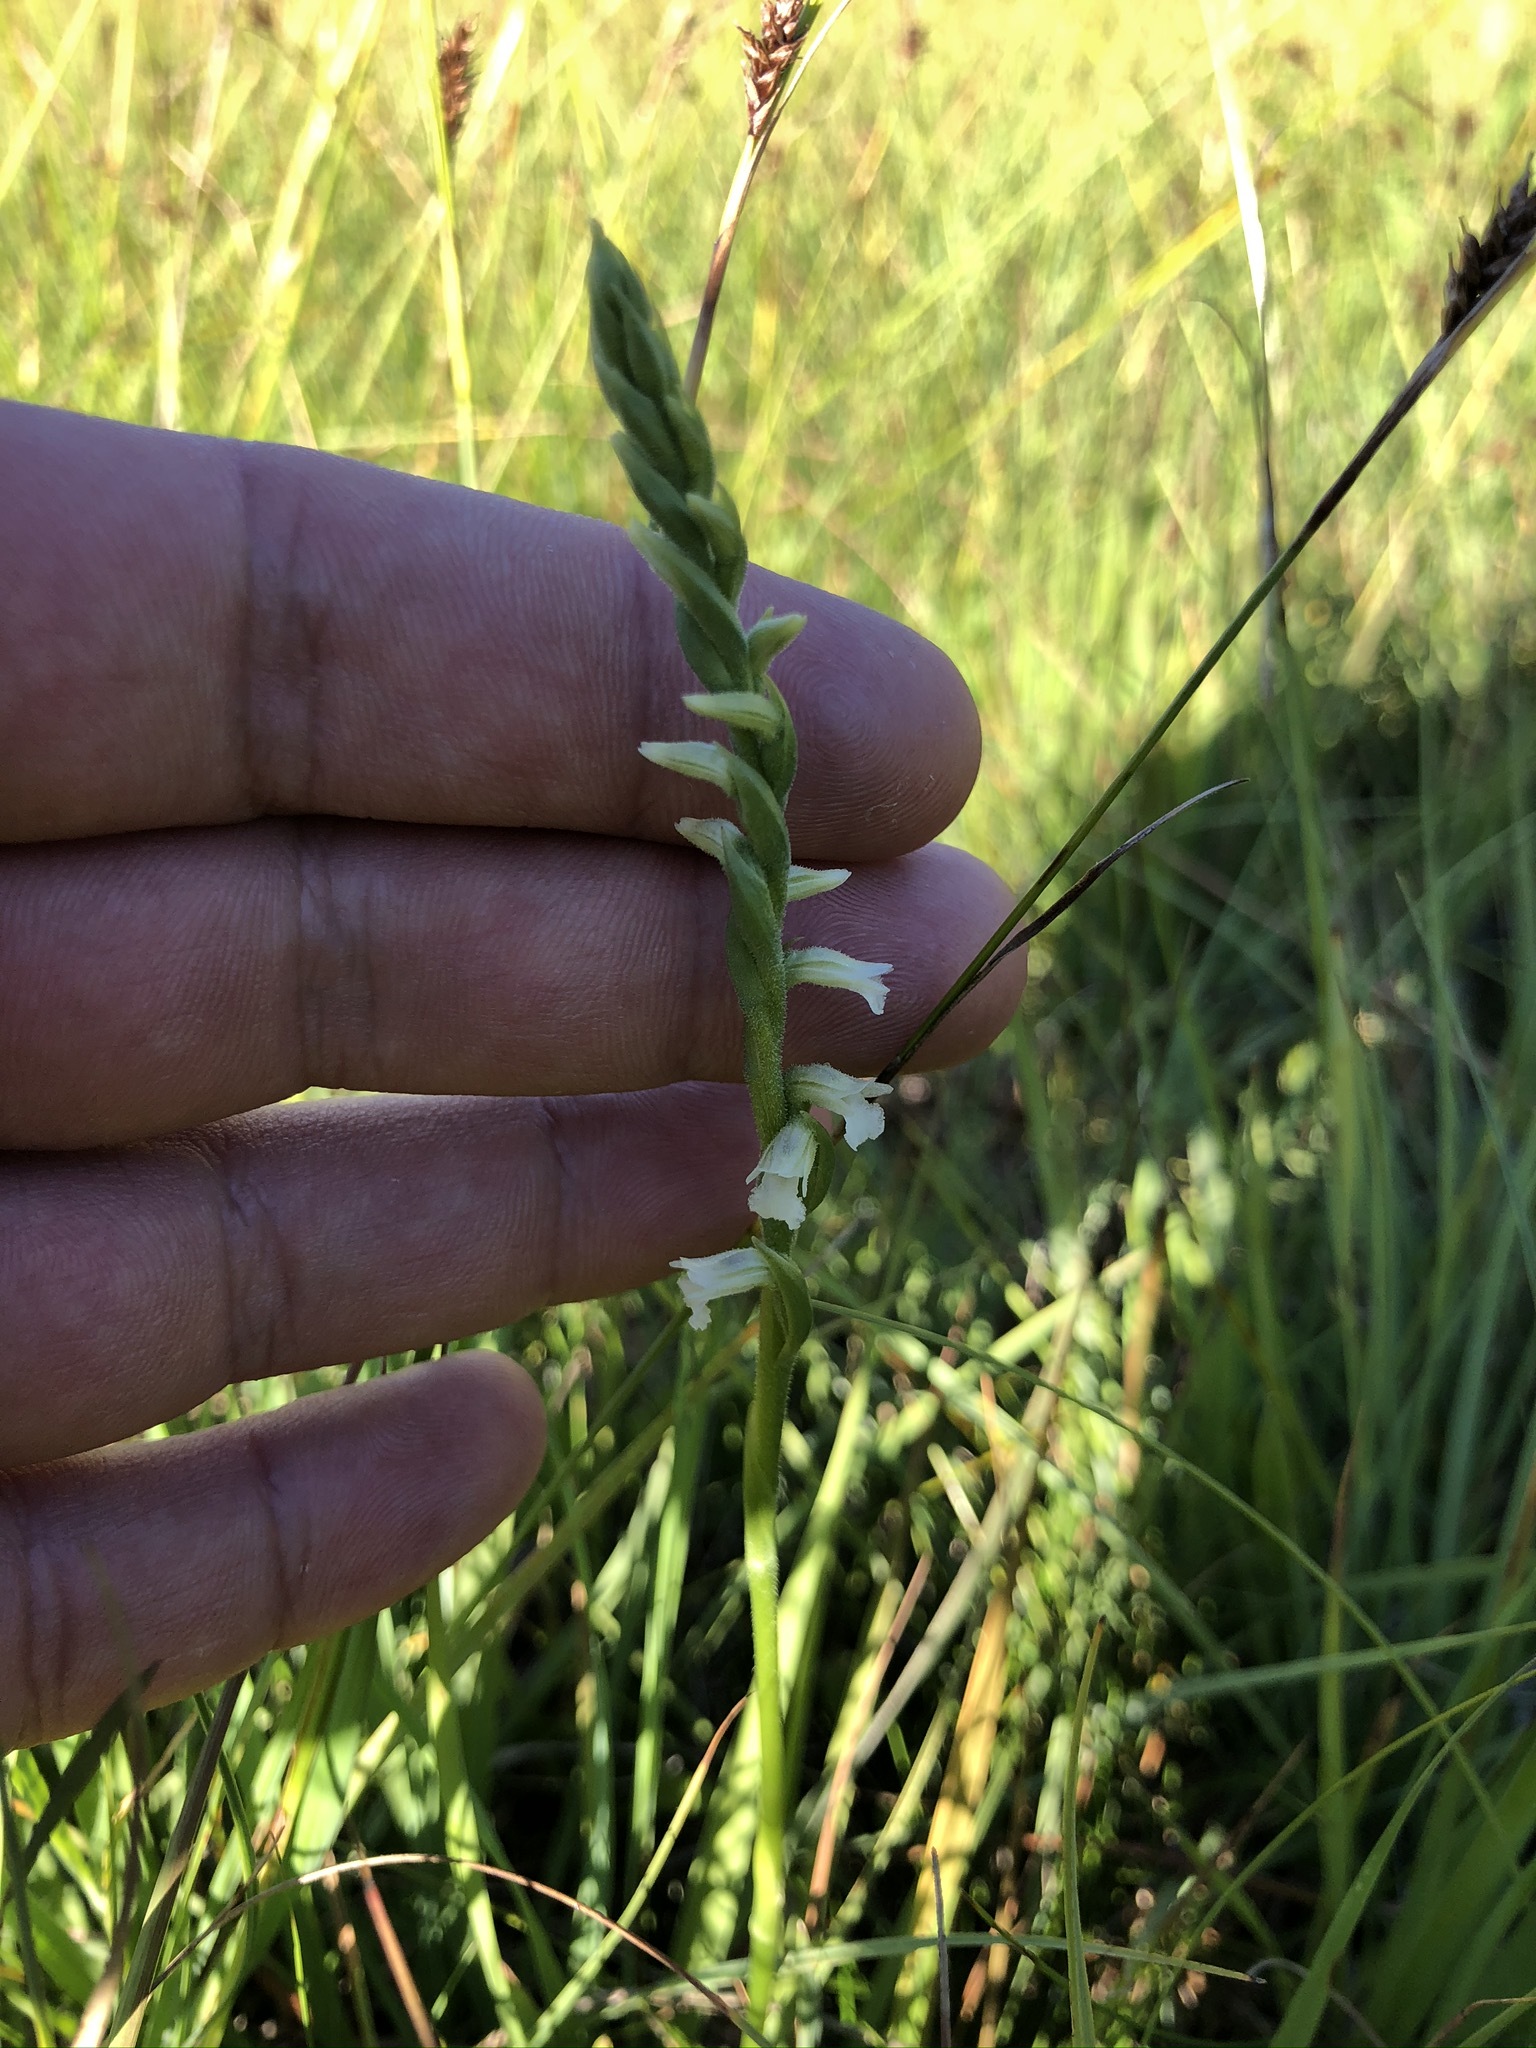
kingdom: Plantae
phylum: Tracheophyta
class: Liliopsida
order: Asparagales
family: Orchidaceae
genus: Spiranthes
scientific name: Spiranthes aestivalis
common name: Summer lady's-tresses
